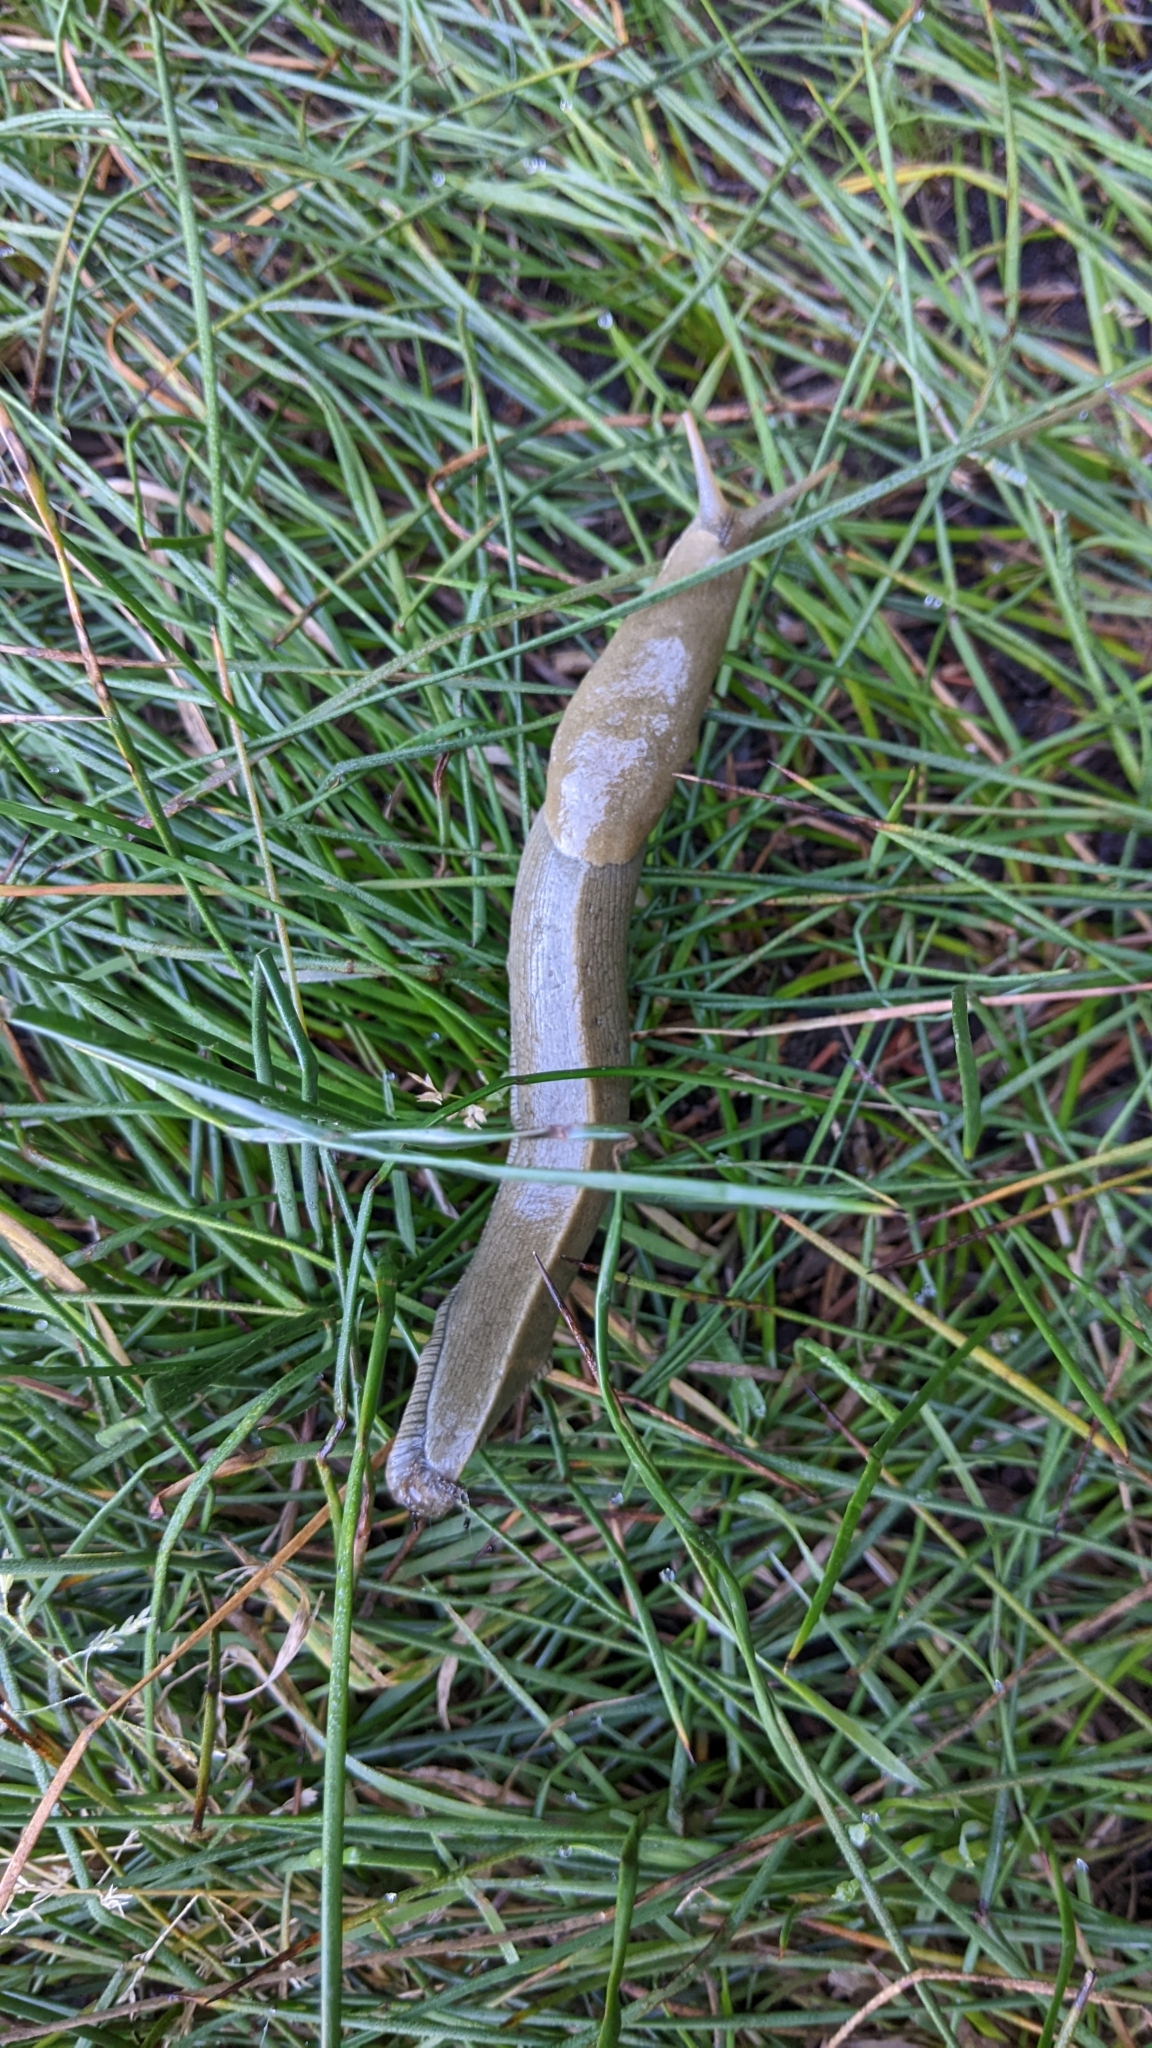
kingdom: Animalia
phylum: Mollusca
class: Gastropoda
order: Stylommatophora
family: Ariolimacidae
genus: Ariolimax
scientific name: Ariolimax columbianus
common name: Pacific banana slug
